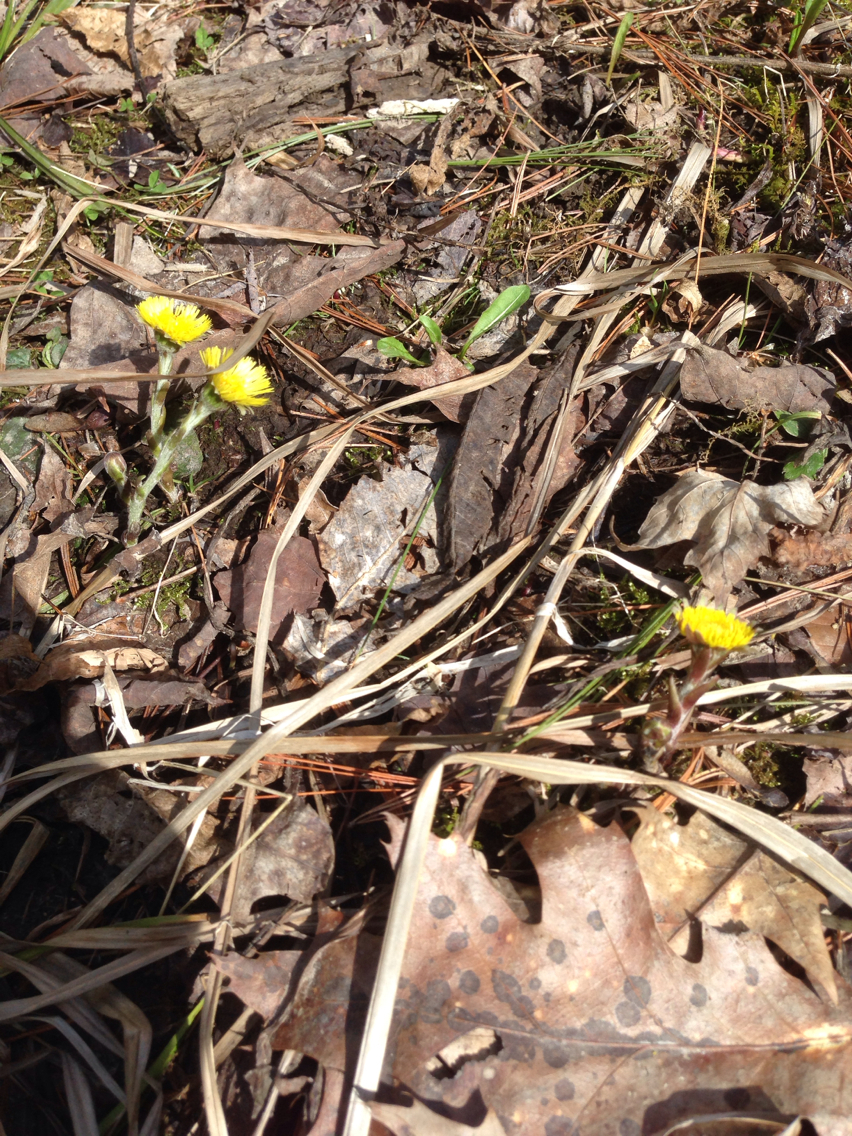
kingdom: Plantae
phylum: Tracheophyta
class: Magnoliopsida
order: Asterales
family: Asteraceae
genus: Tussilago
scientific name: Tussilago farfara
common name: Coltsfoot
